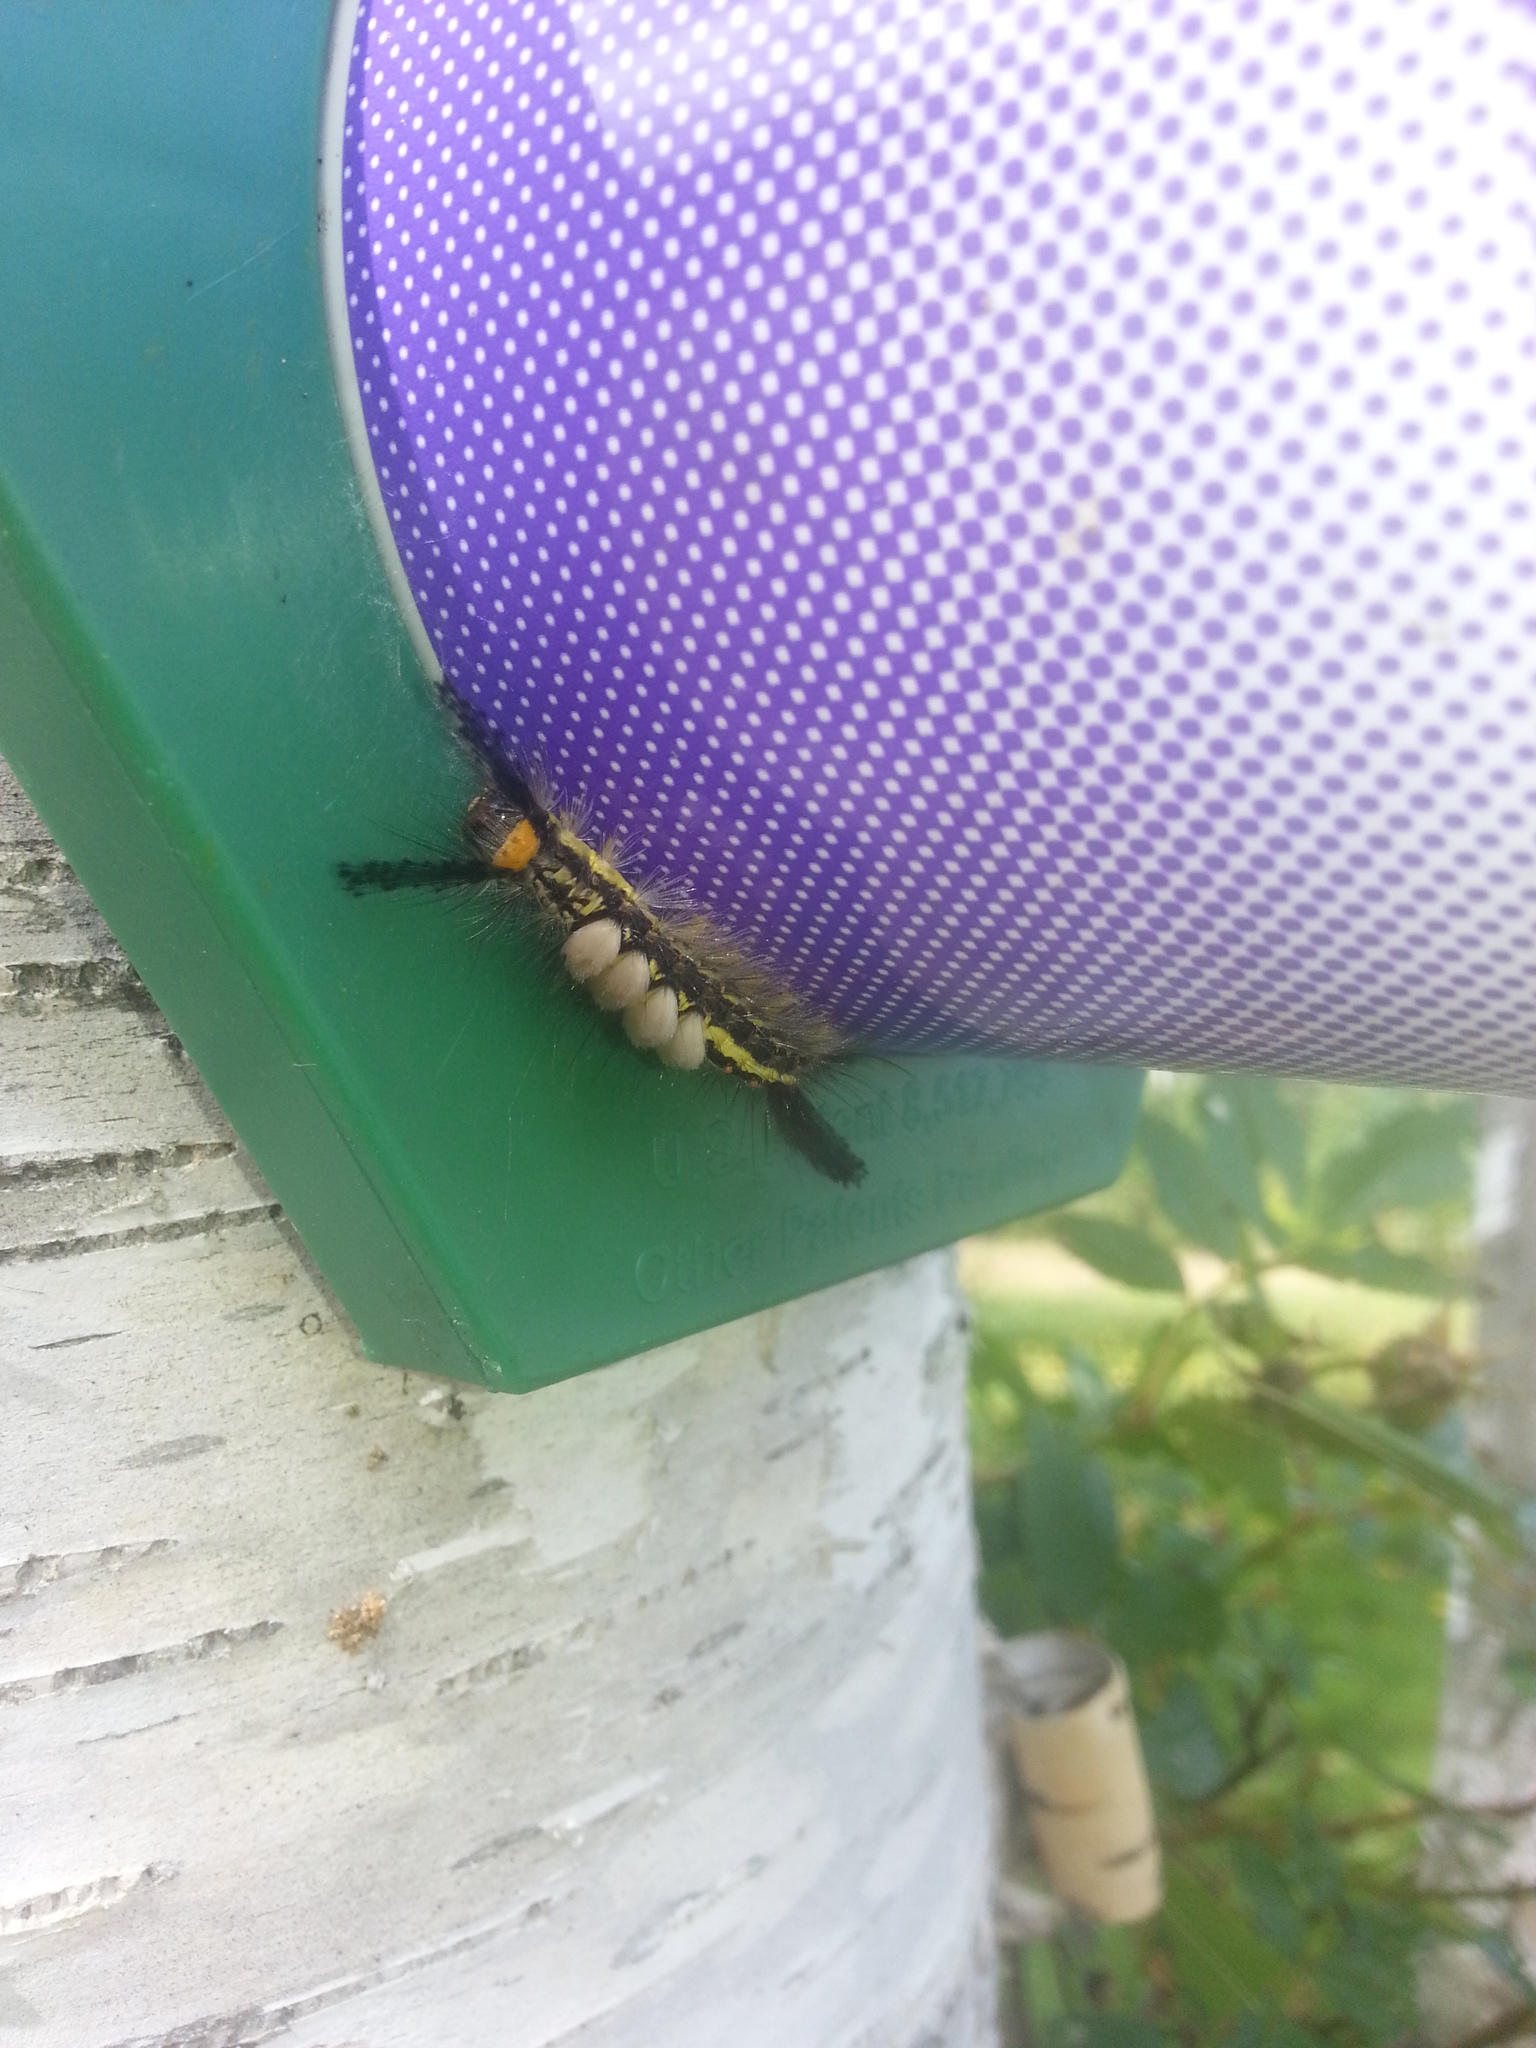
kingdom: Animalia
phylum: Arthropoda
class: Insecta
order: Lepidoptera
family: Erebidae
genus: Orgyia
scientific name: Orgyia leucostigma
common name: White-marked tussock moth
